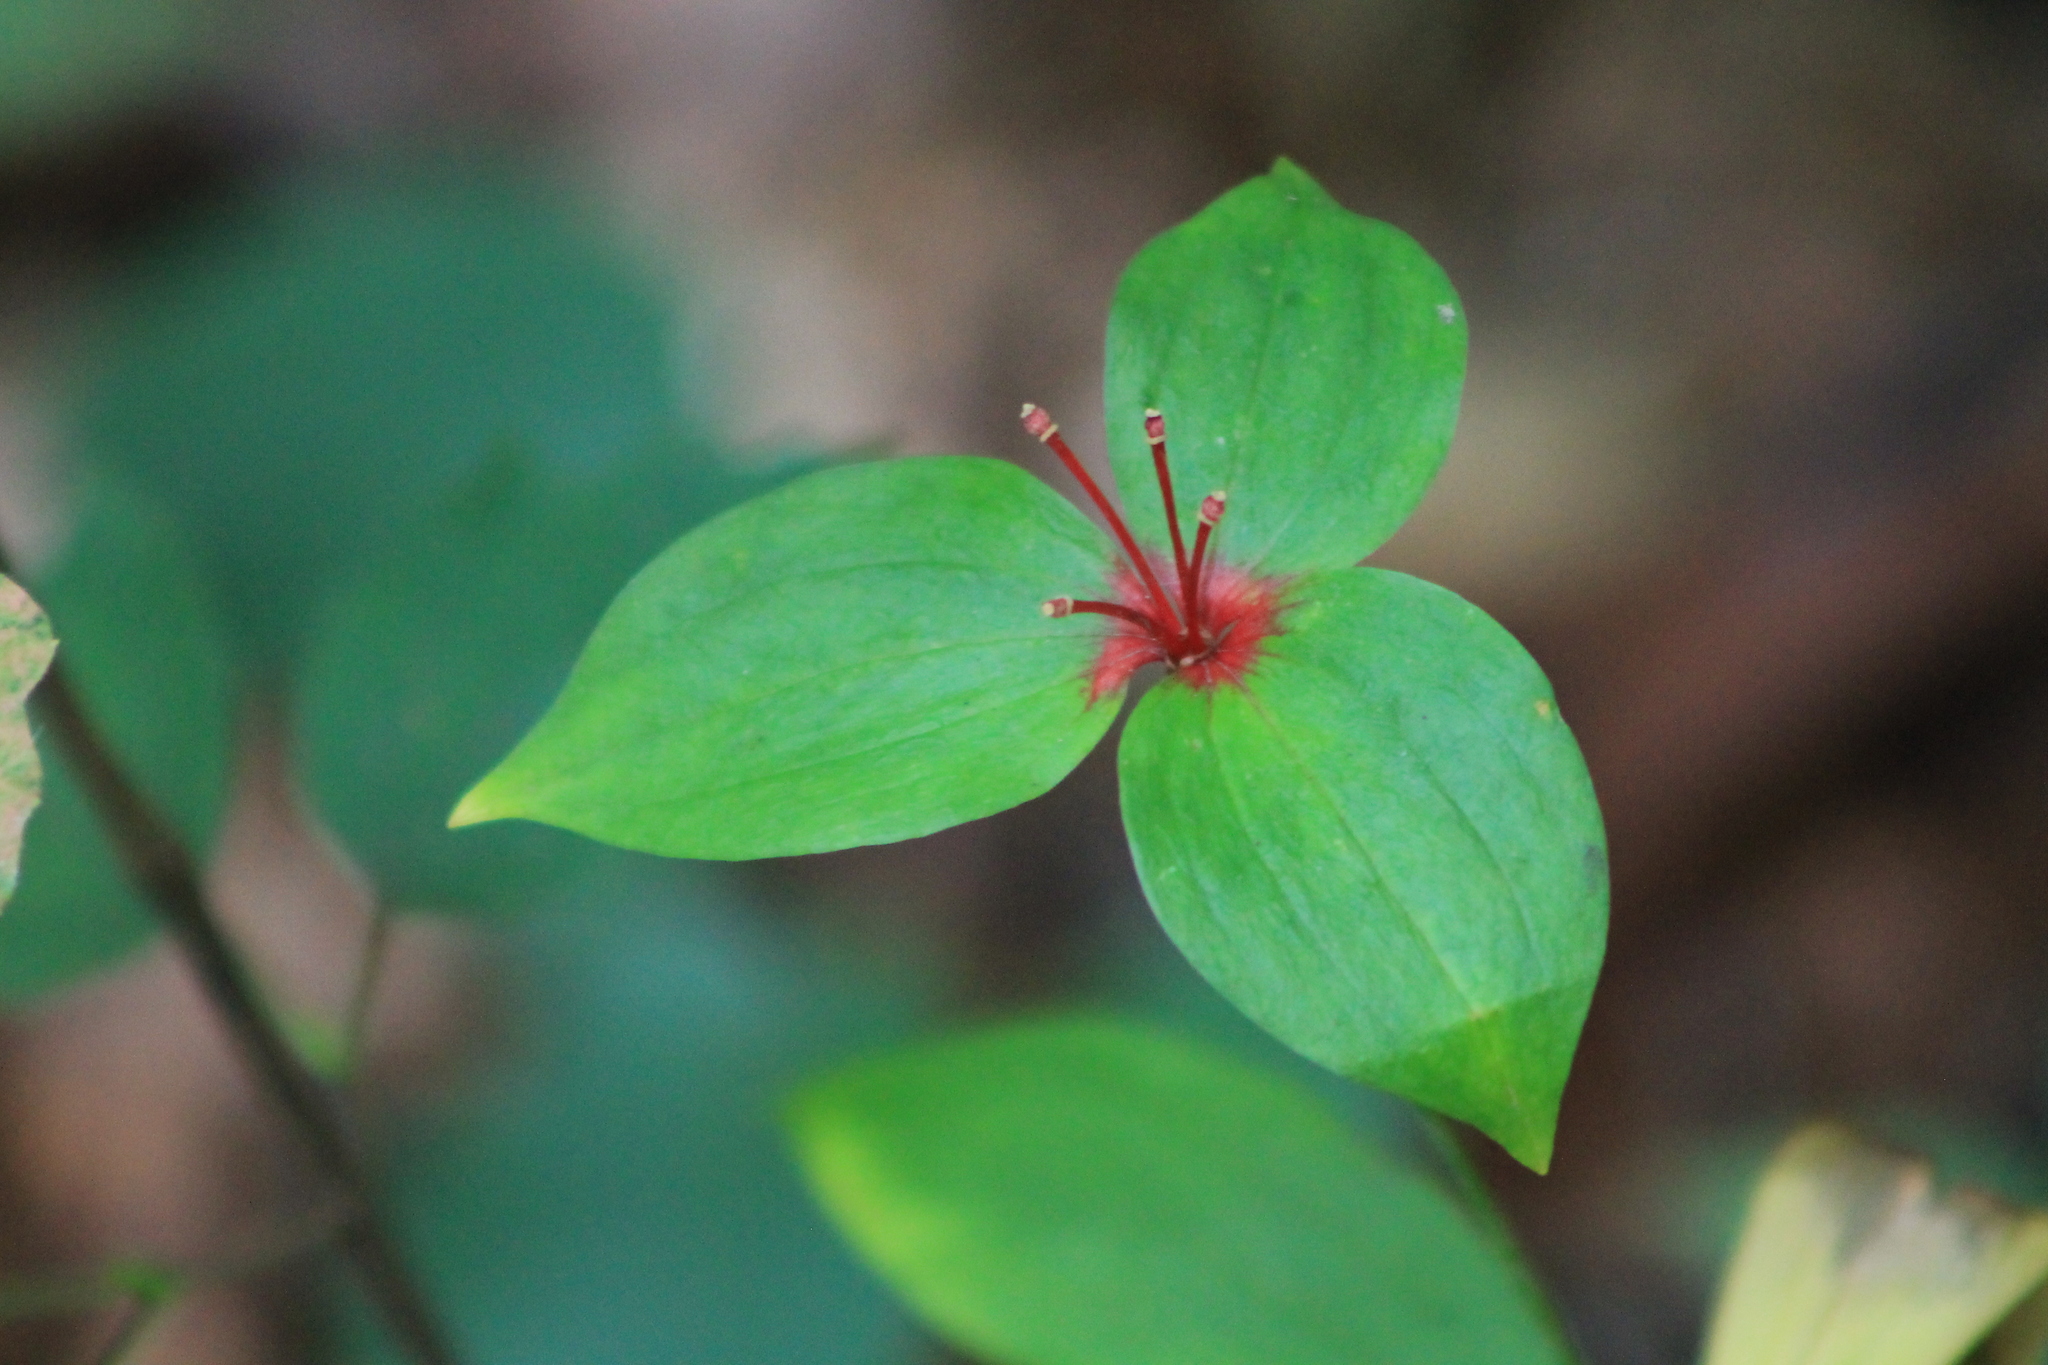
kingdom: Plantae
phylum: Tracheophyta
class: Liliopsida
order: Liliales
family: Liliaceae
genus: Medeola
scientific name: Medeola virginiana
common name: Indian cucumber-root
